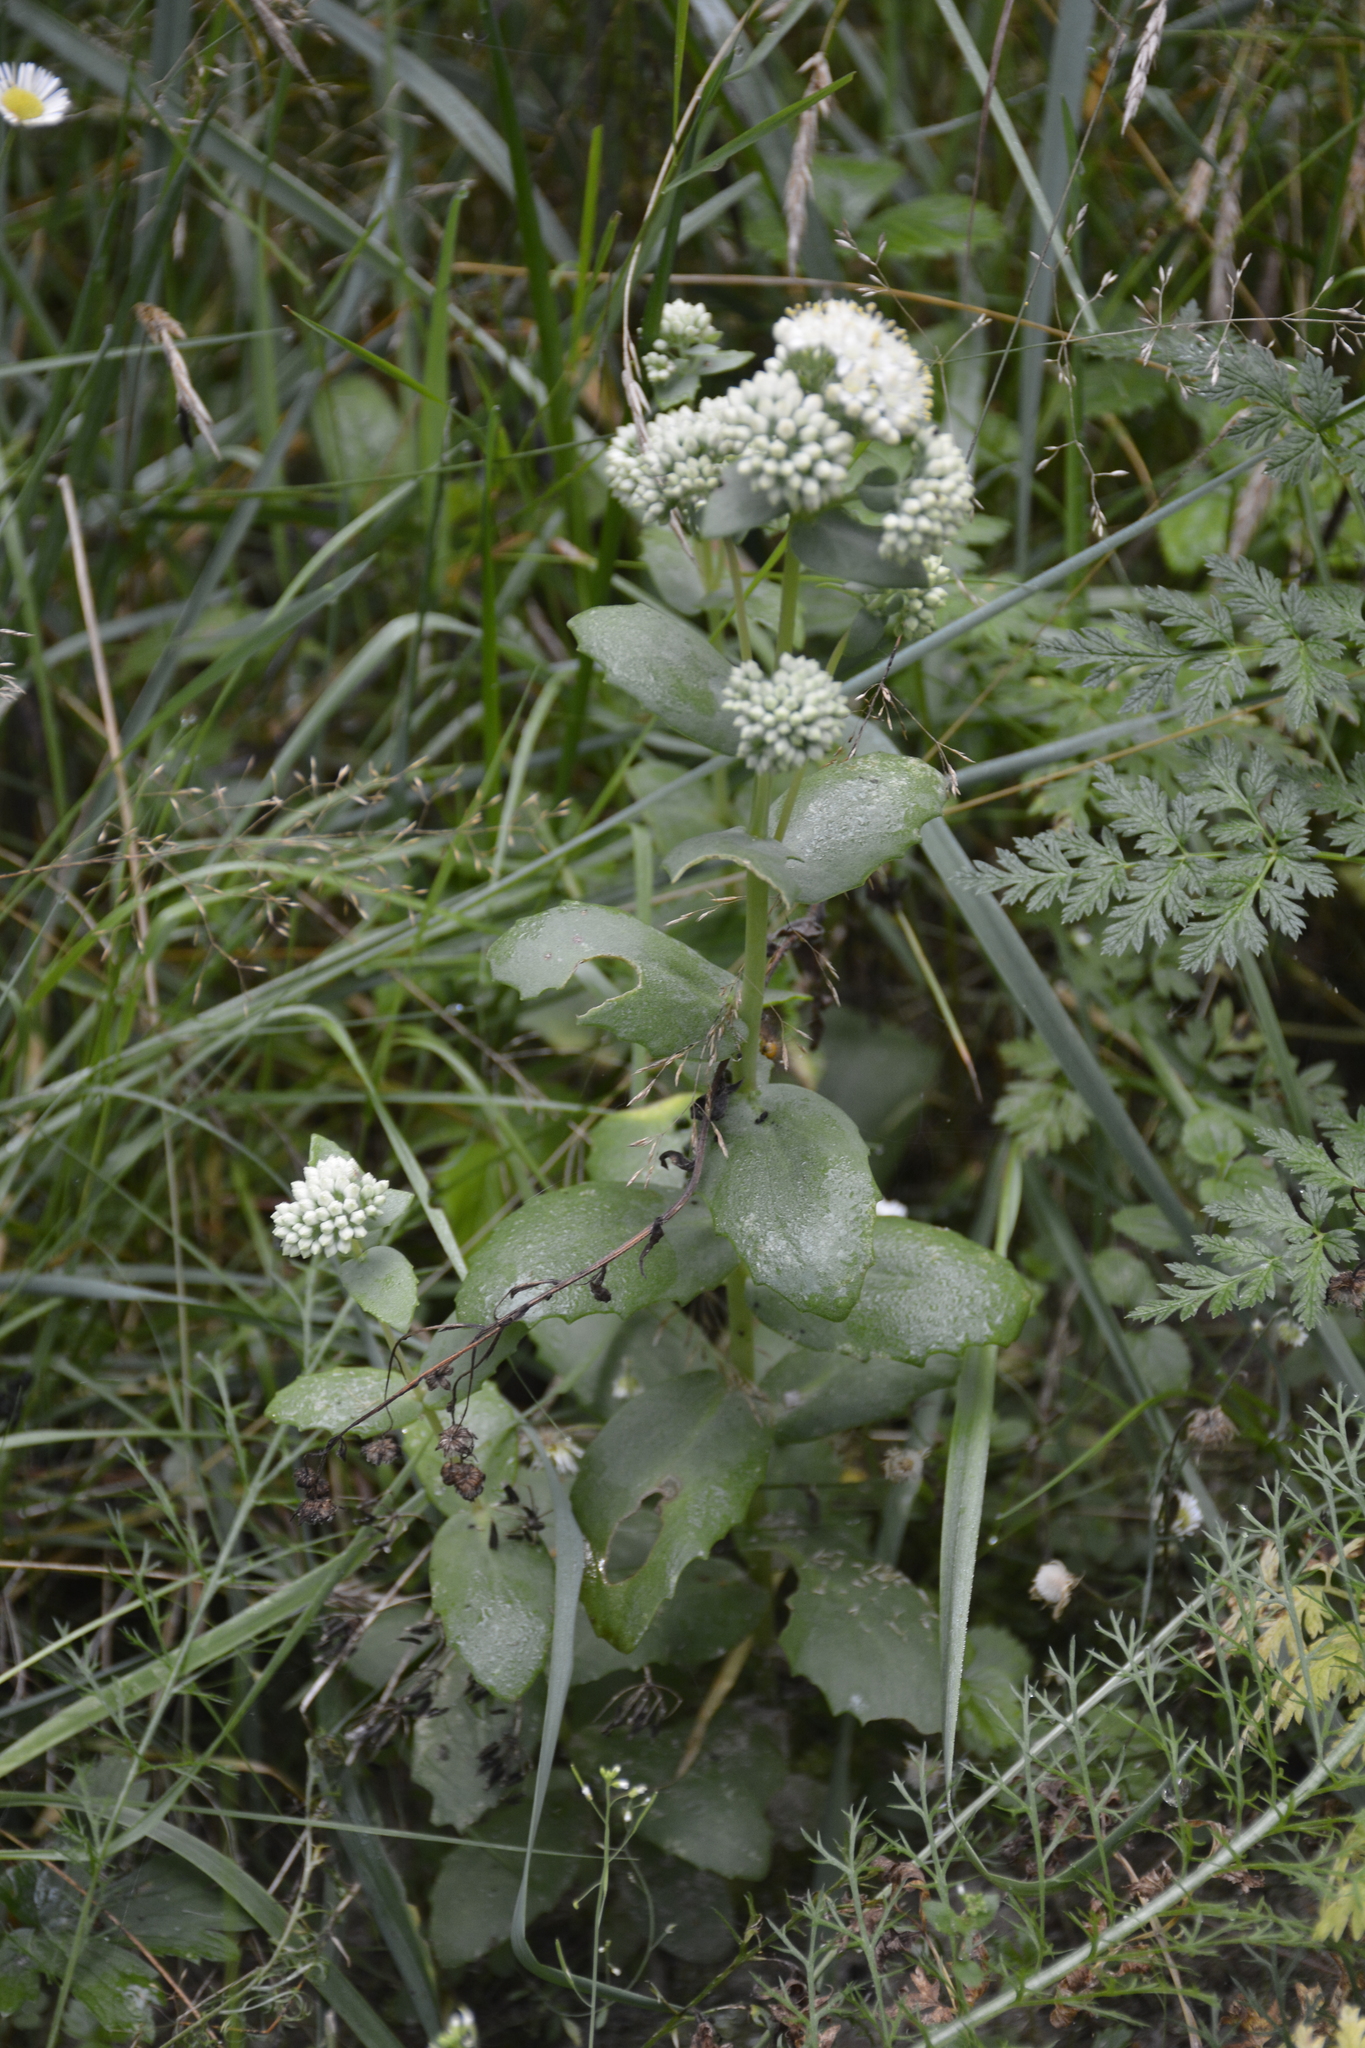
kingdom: Plantae
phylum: Tracheophyta
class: Magnoliopsida
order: Saxifragales
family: Crassulaceae
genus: Hylotelephium
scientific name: Hylotelephium maximum
